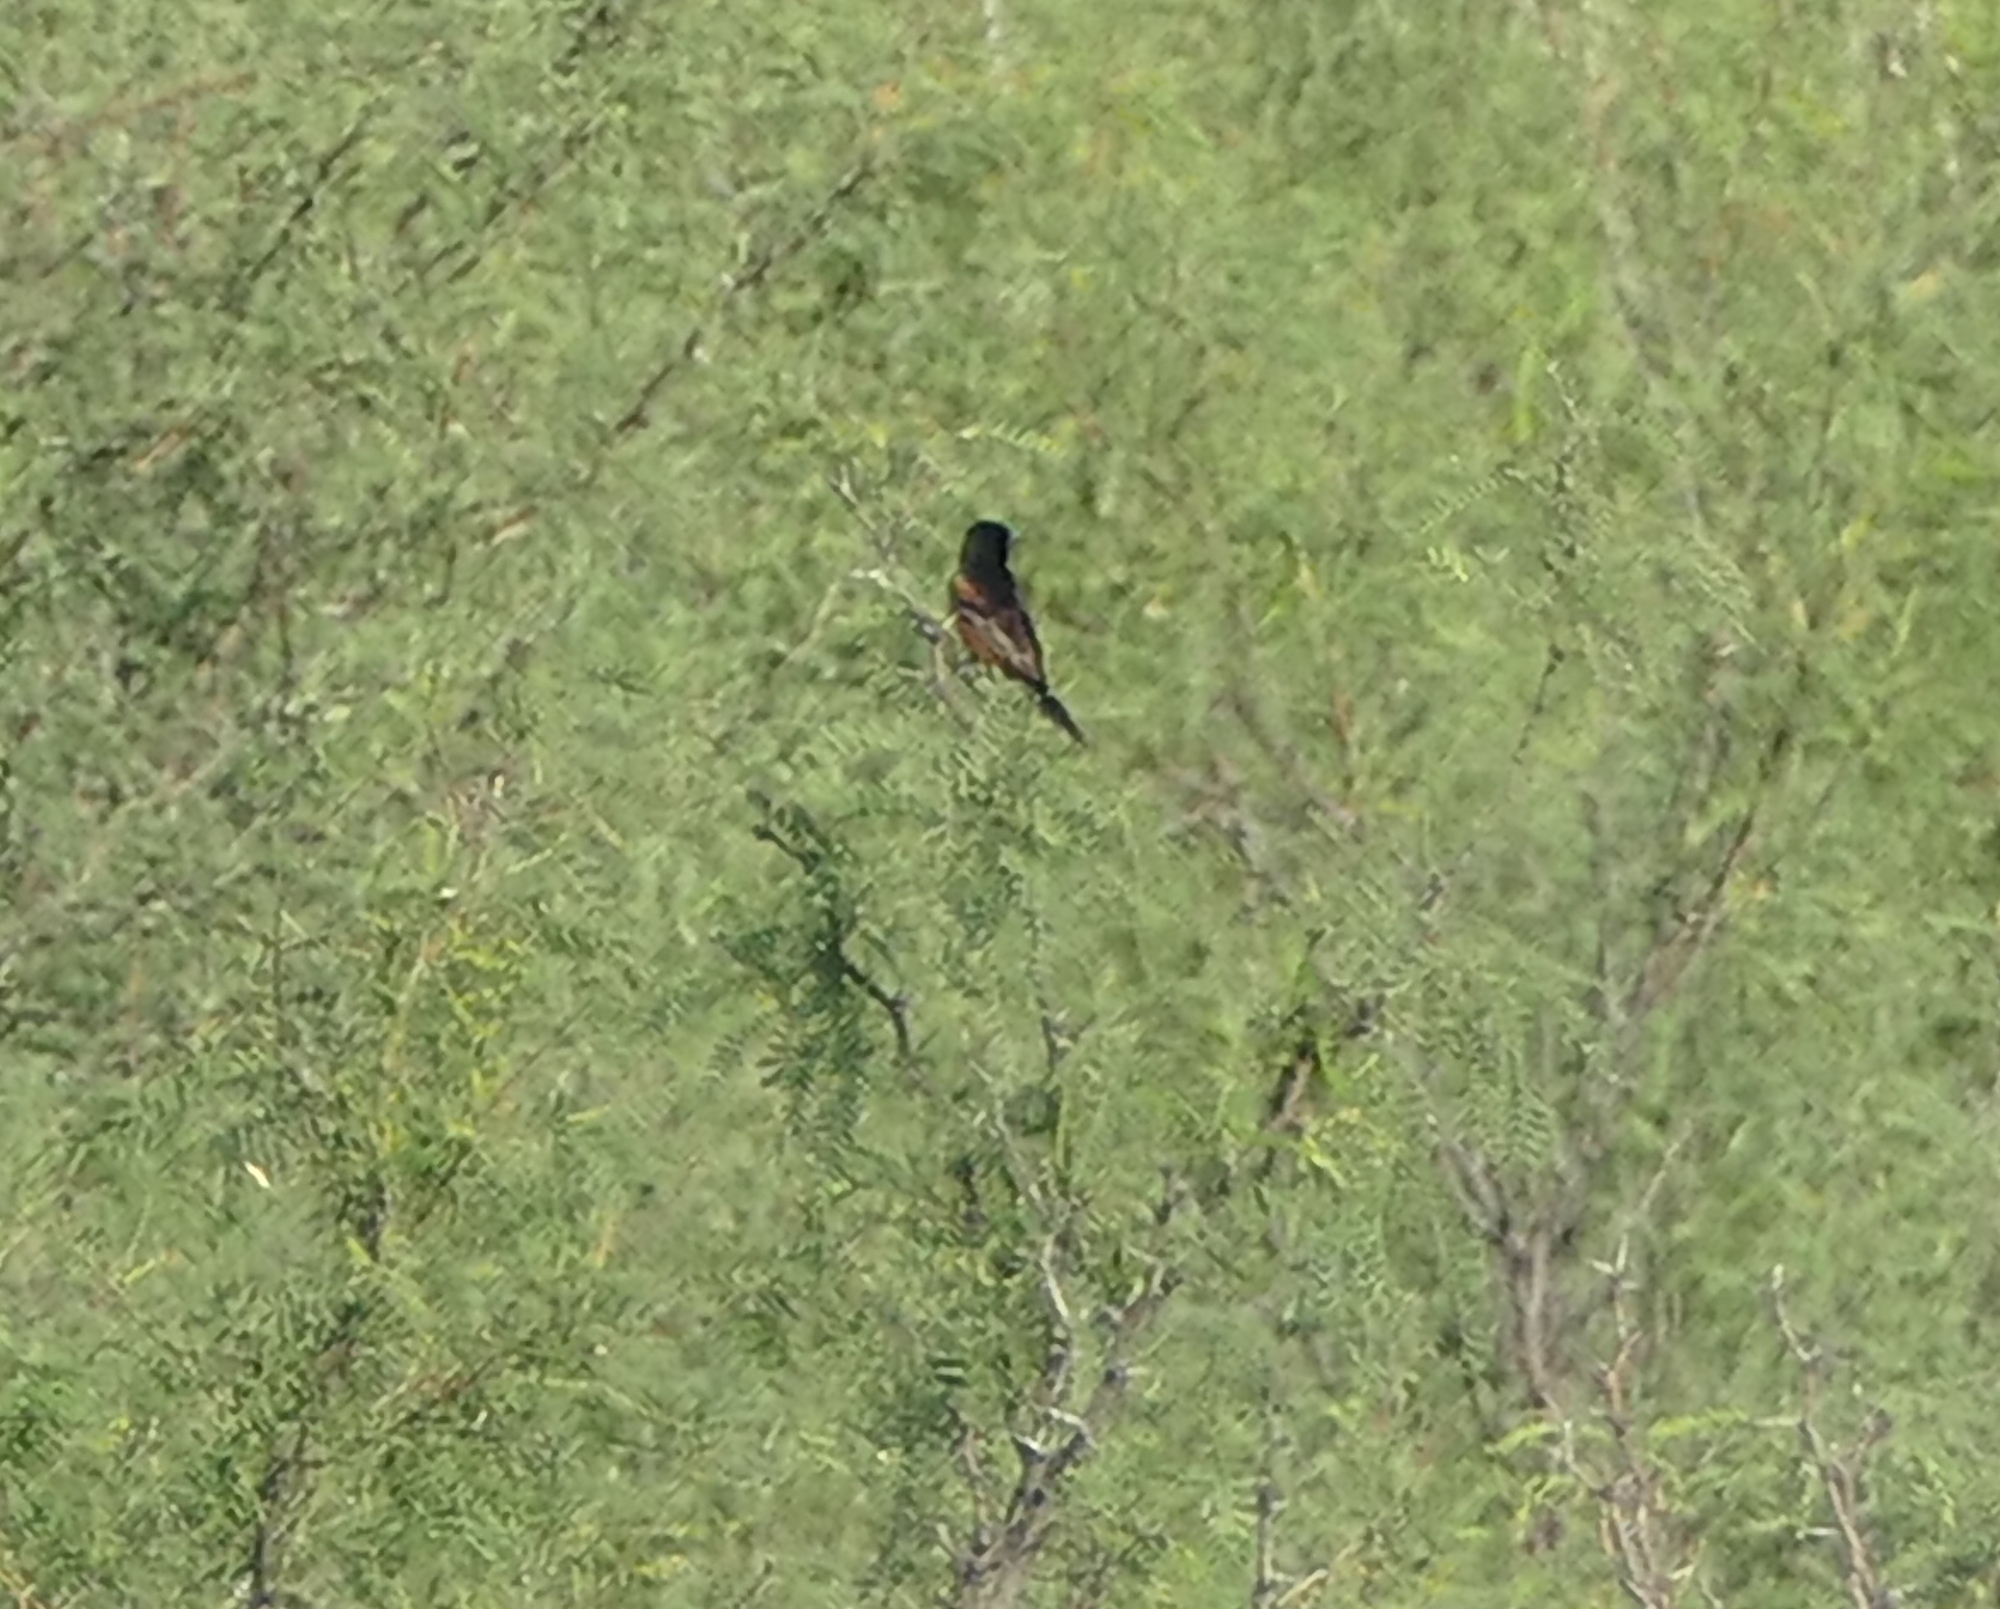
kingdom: Animalia
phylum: Chordata
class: Aves
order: Passeriformes
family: Icteridae
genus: Icterus
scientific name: Icterus spurius
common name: Orchard oriole
